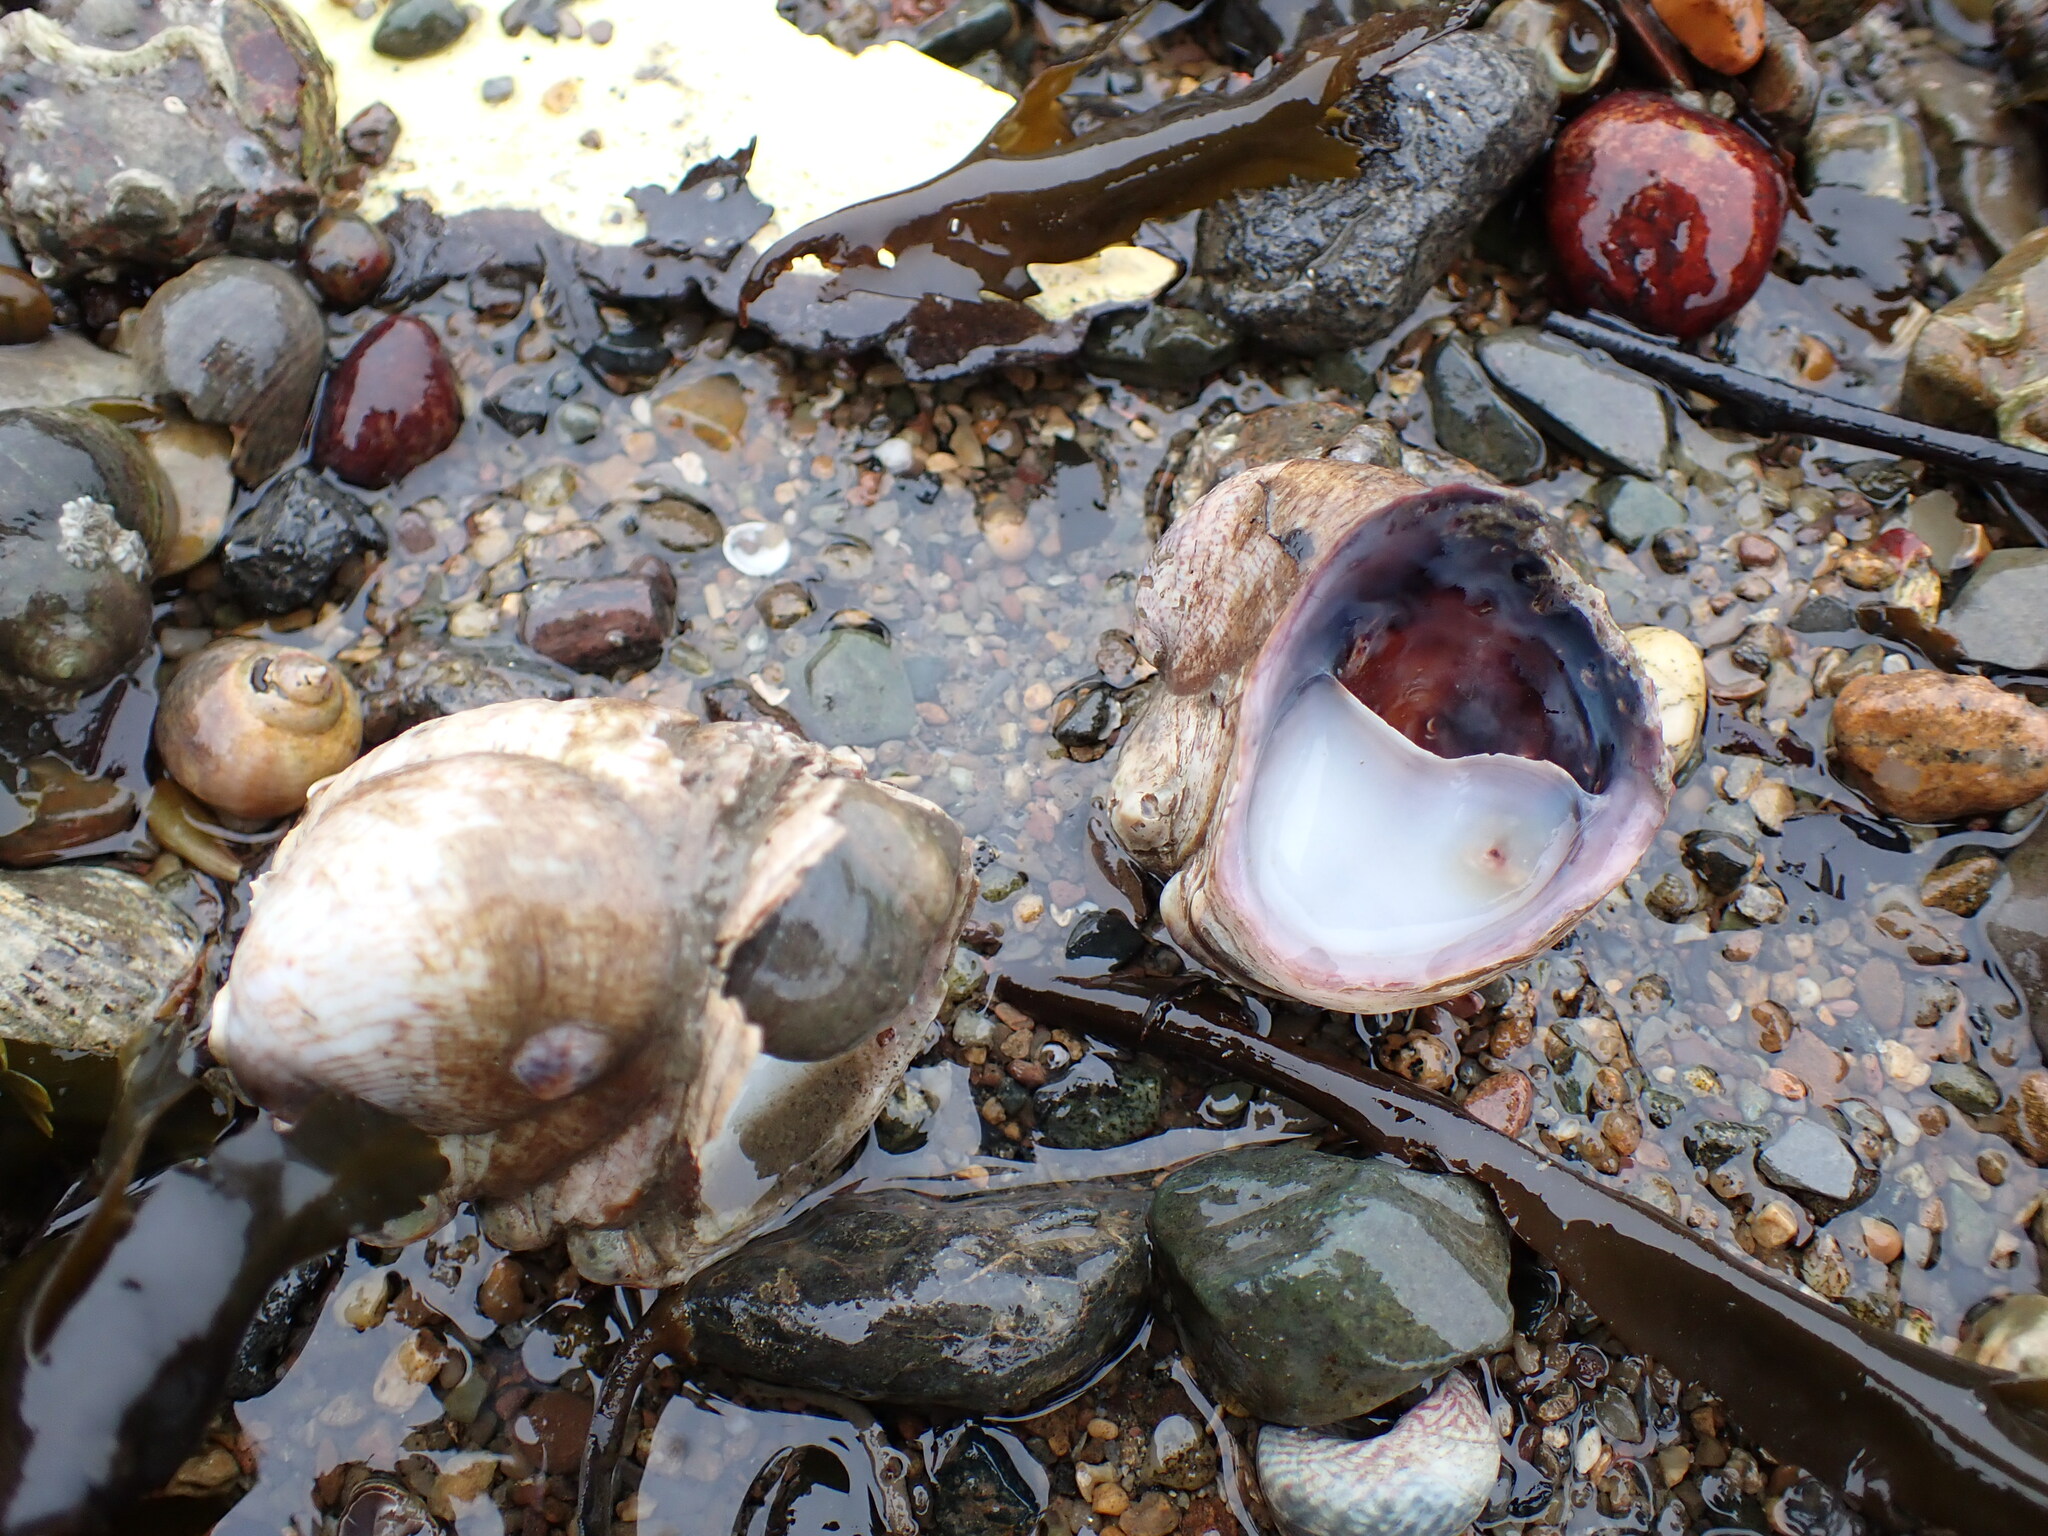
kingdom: Animalia
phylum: Mollusca
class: Gastropoda
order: Littorinimorpha
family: Calyptraeidae
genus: Crepidula
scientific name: Crepidula fornicata
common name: Slipper limpet
